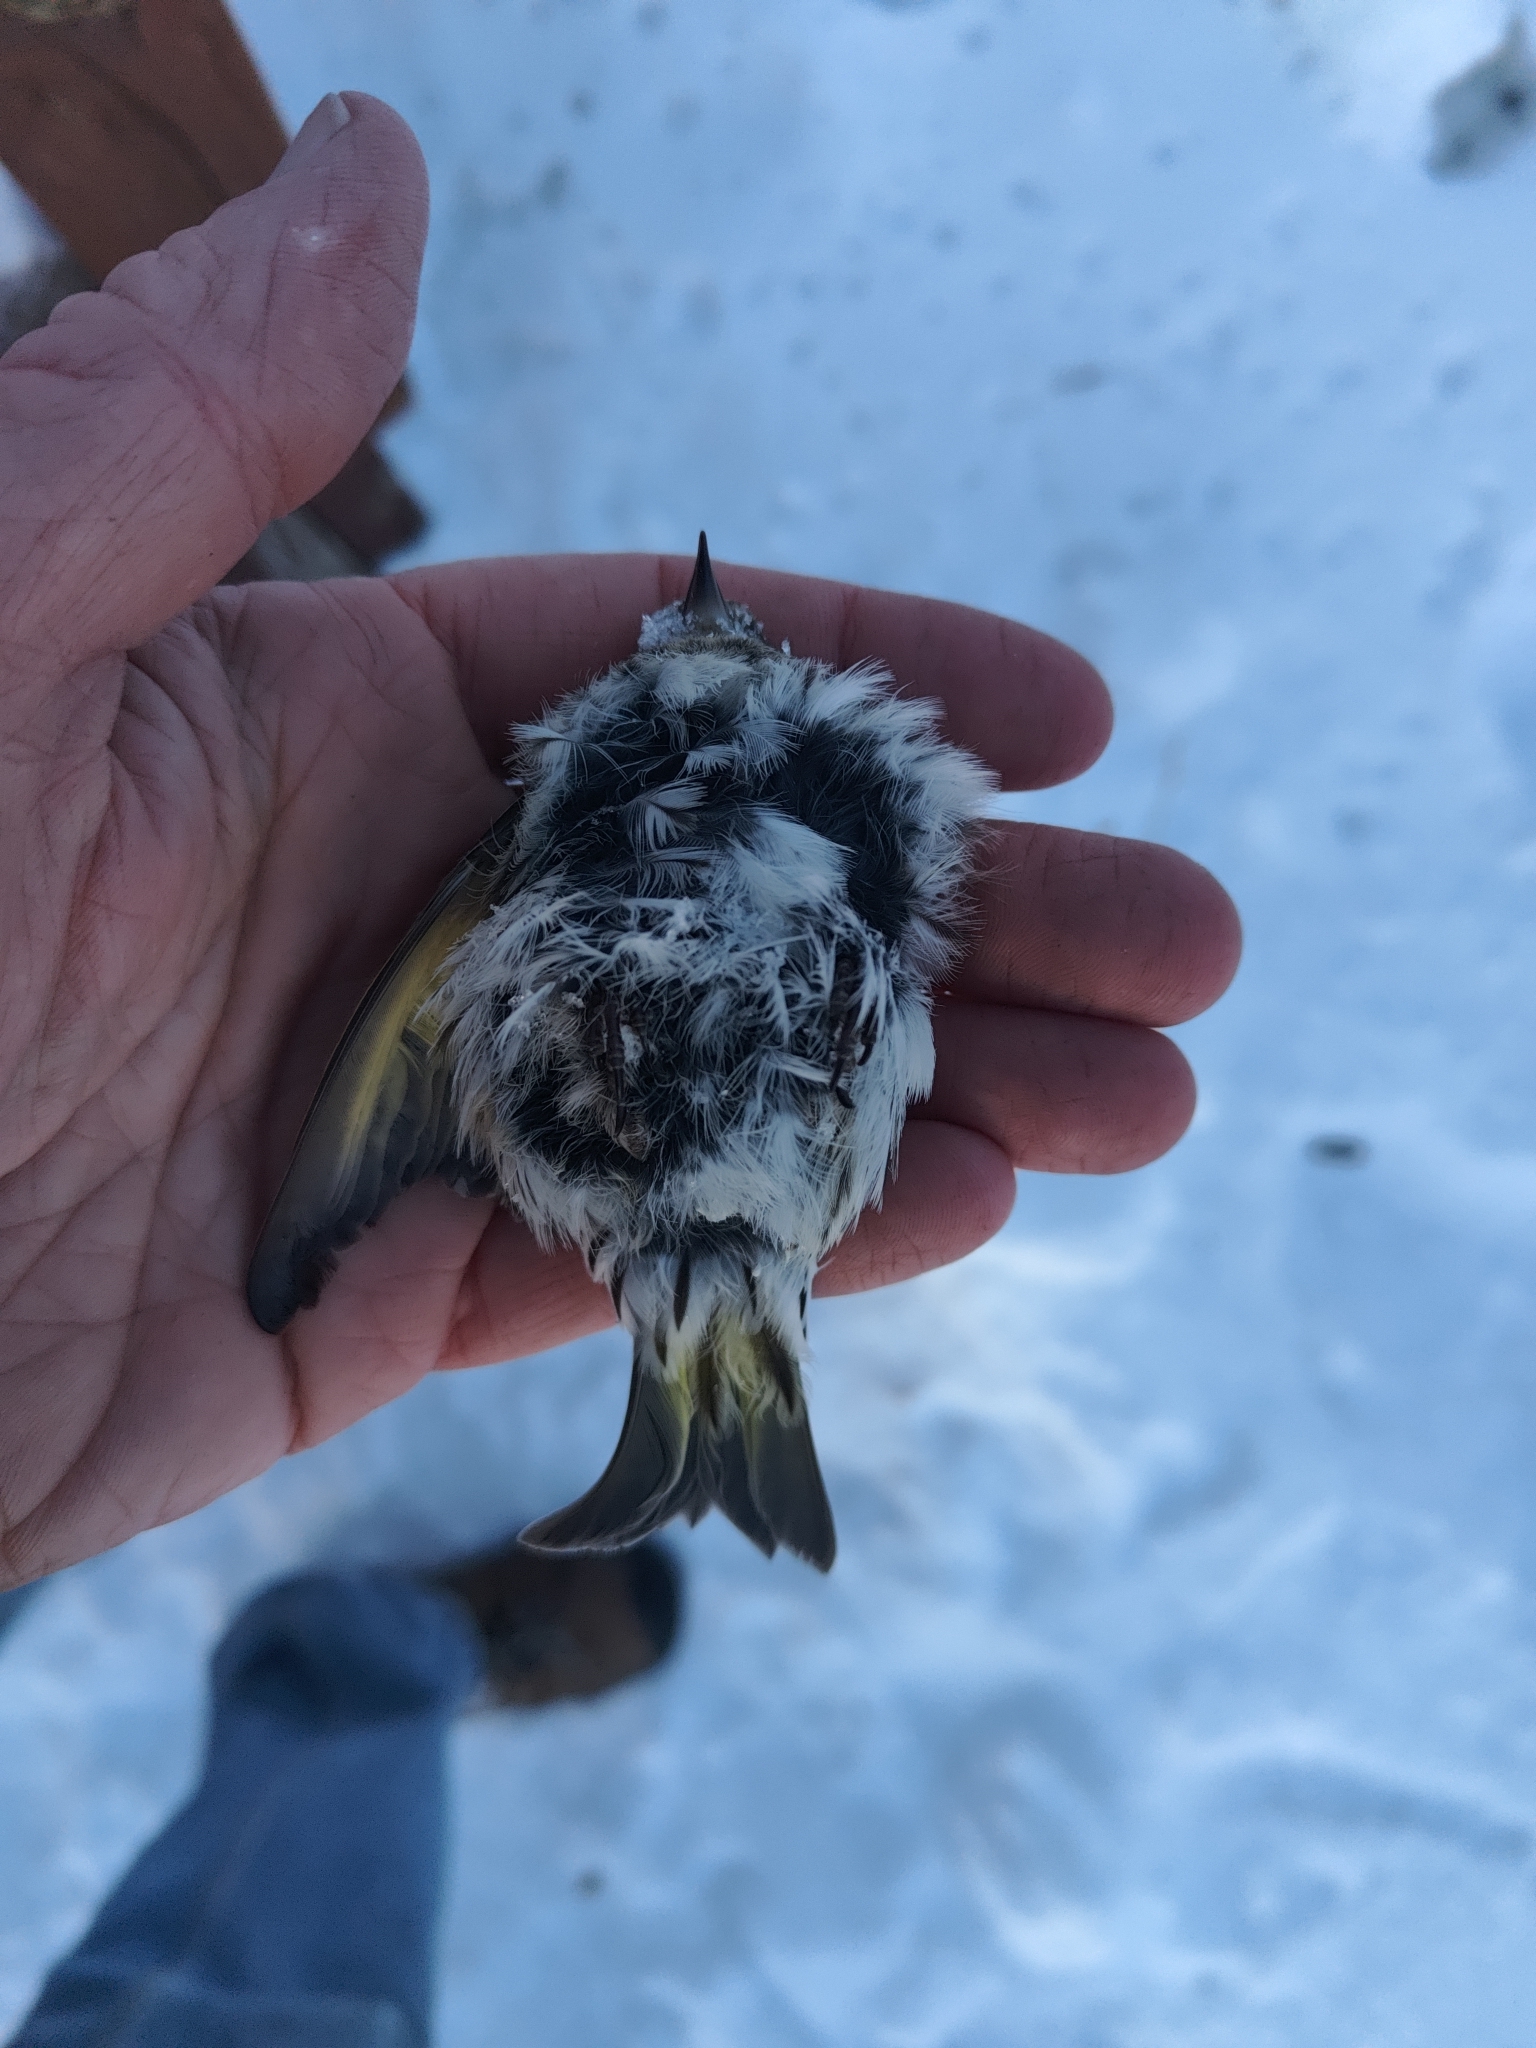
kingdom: Animalia
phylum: Chordata
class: Aves
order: Passeriformes
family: Fringillidae
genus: Spinus
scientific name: Spinus pinus
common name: Pine siskin
